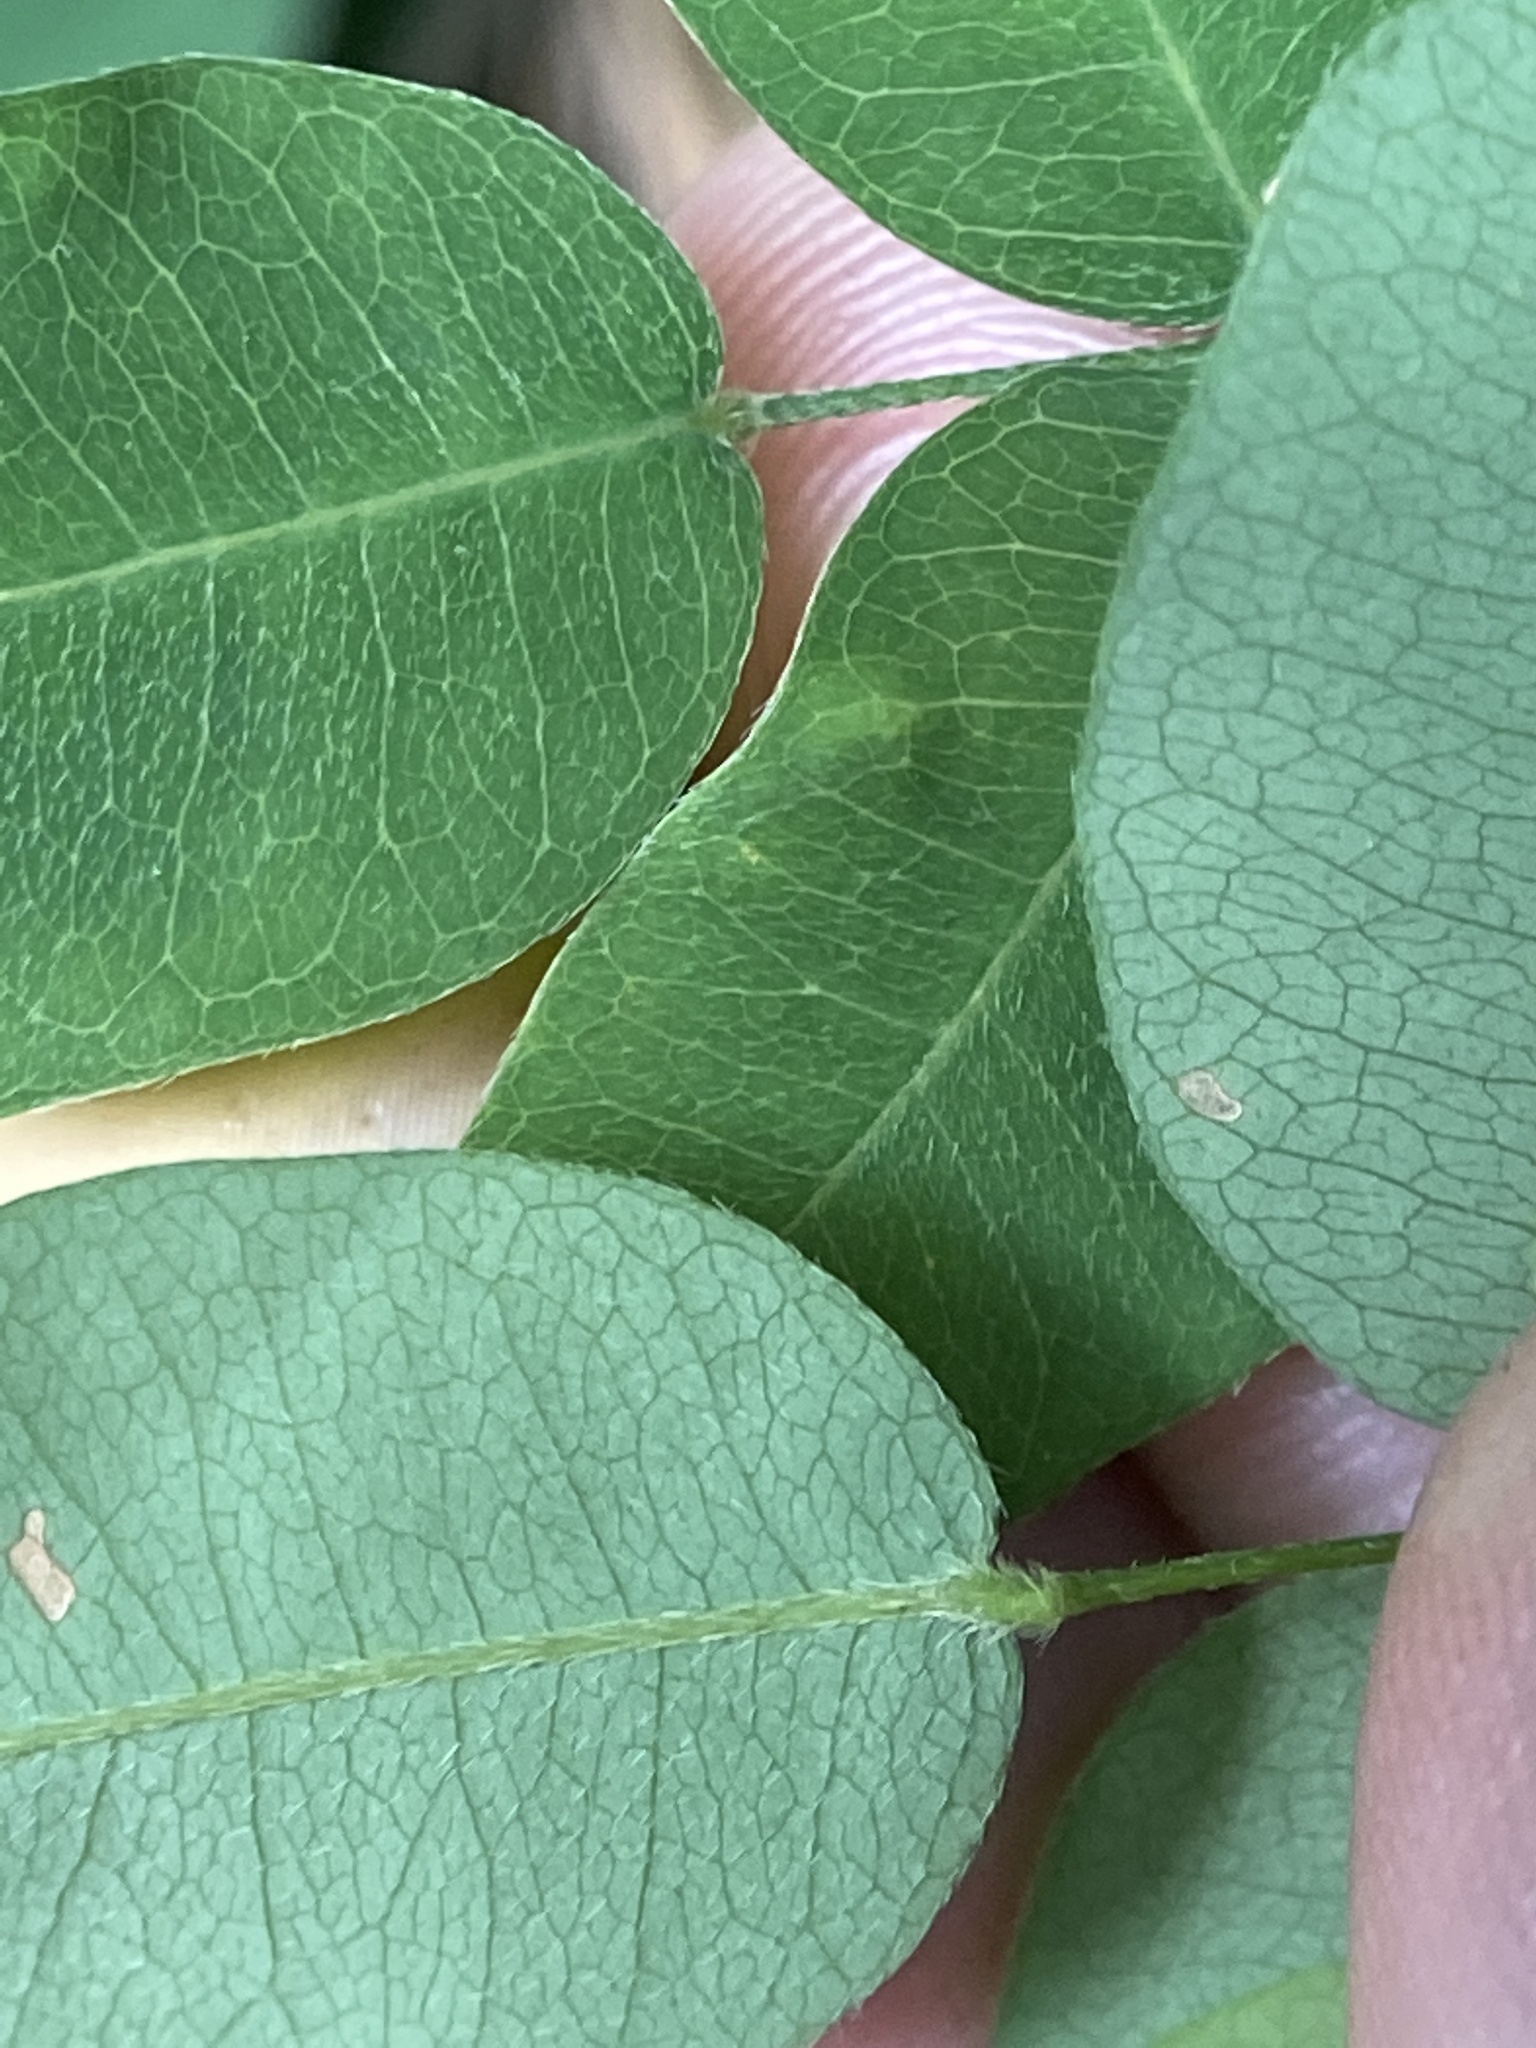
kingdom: Plantae
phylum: Tracheophyta
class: Magnoliopsida
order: Fabales
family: Fabaceae
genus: Lespedeza
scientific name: Lespedeza bicolor
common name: Shrub lespedeza
